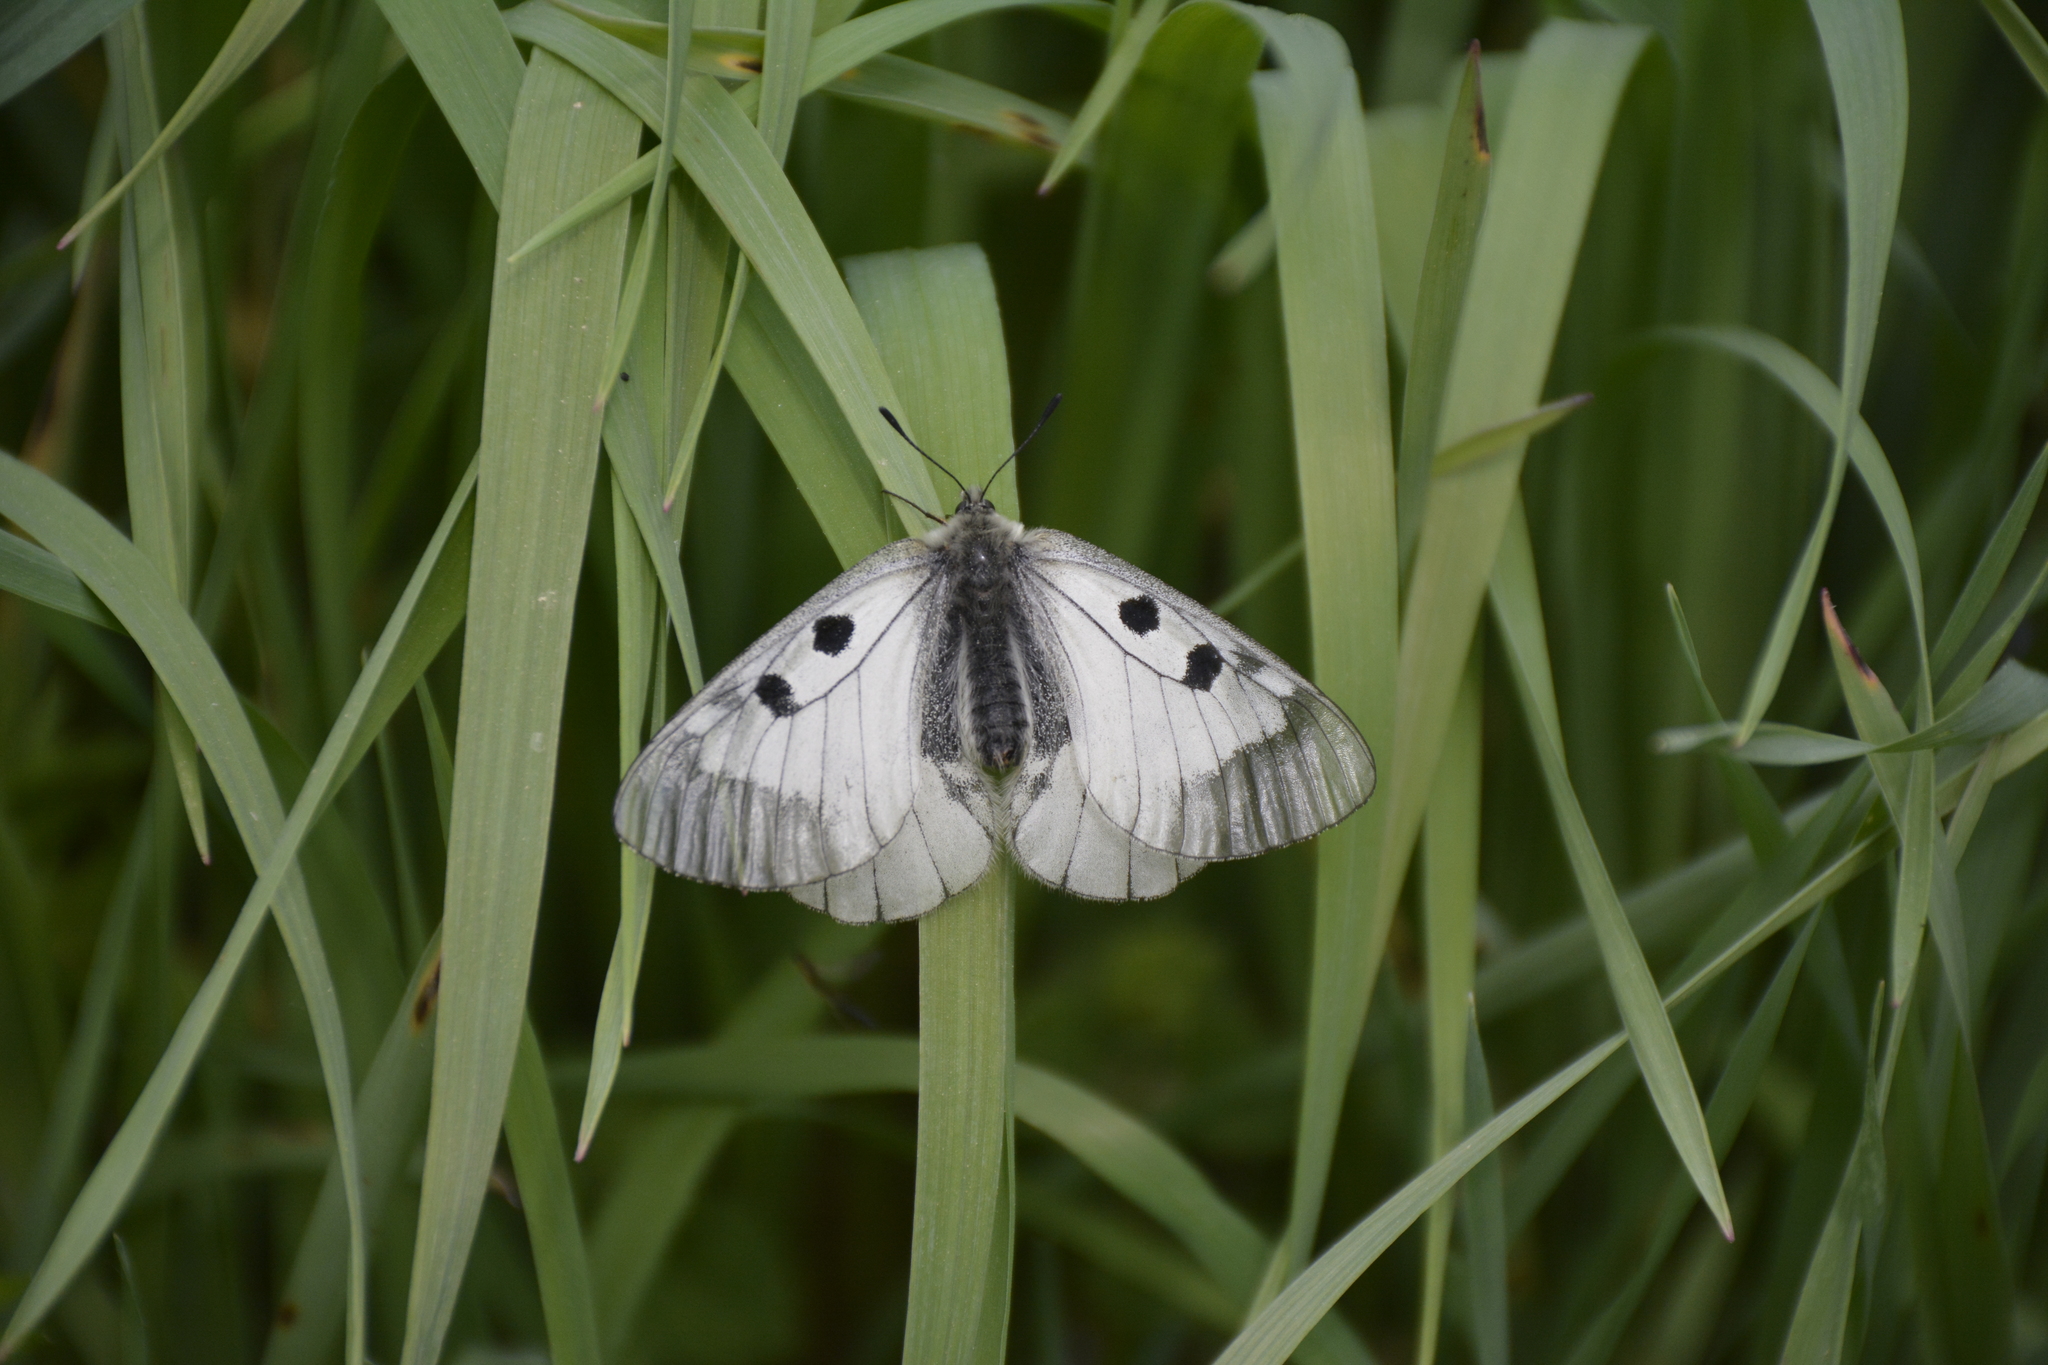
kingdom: Animalia
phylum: Arthropoda
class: Insecta
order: Lepidoptera
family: Papilionidae
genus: Parnassius
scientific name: Parnassius mnemosyne
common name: Clouded apollo
